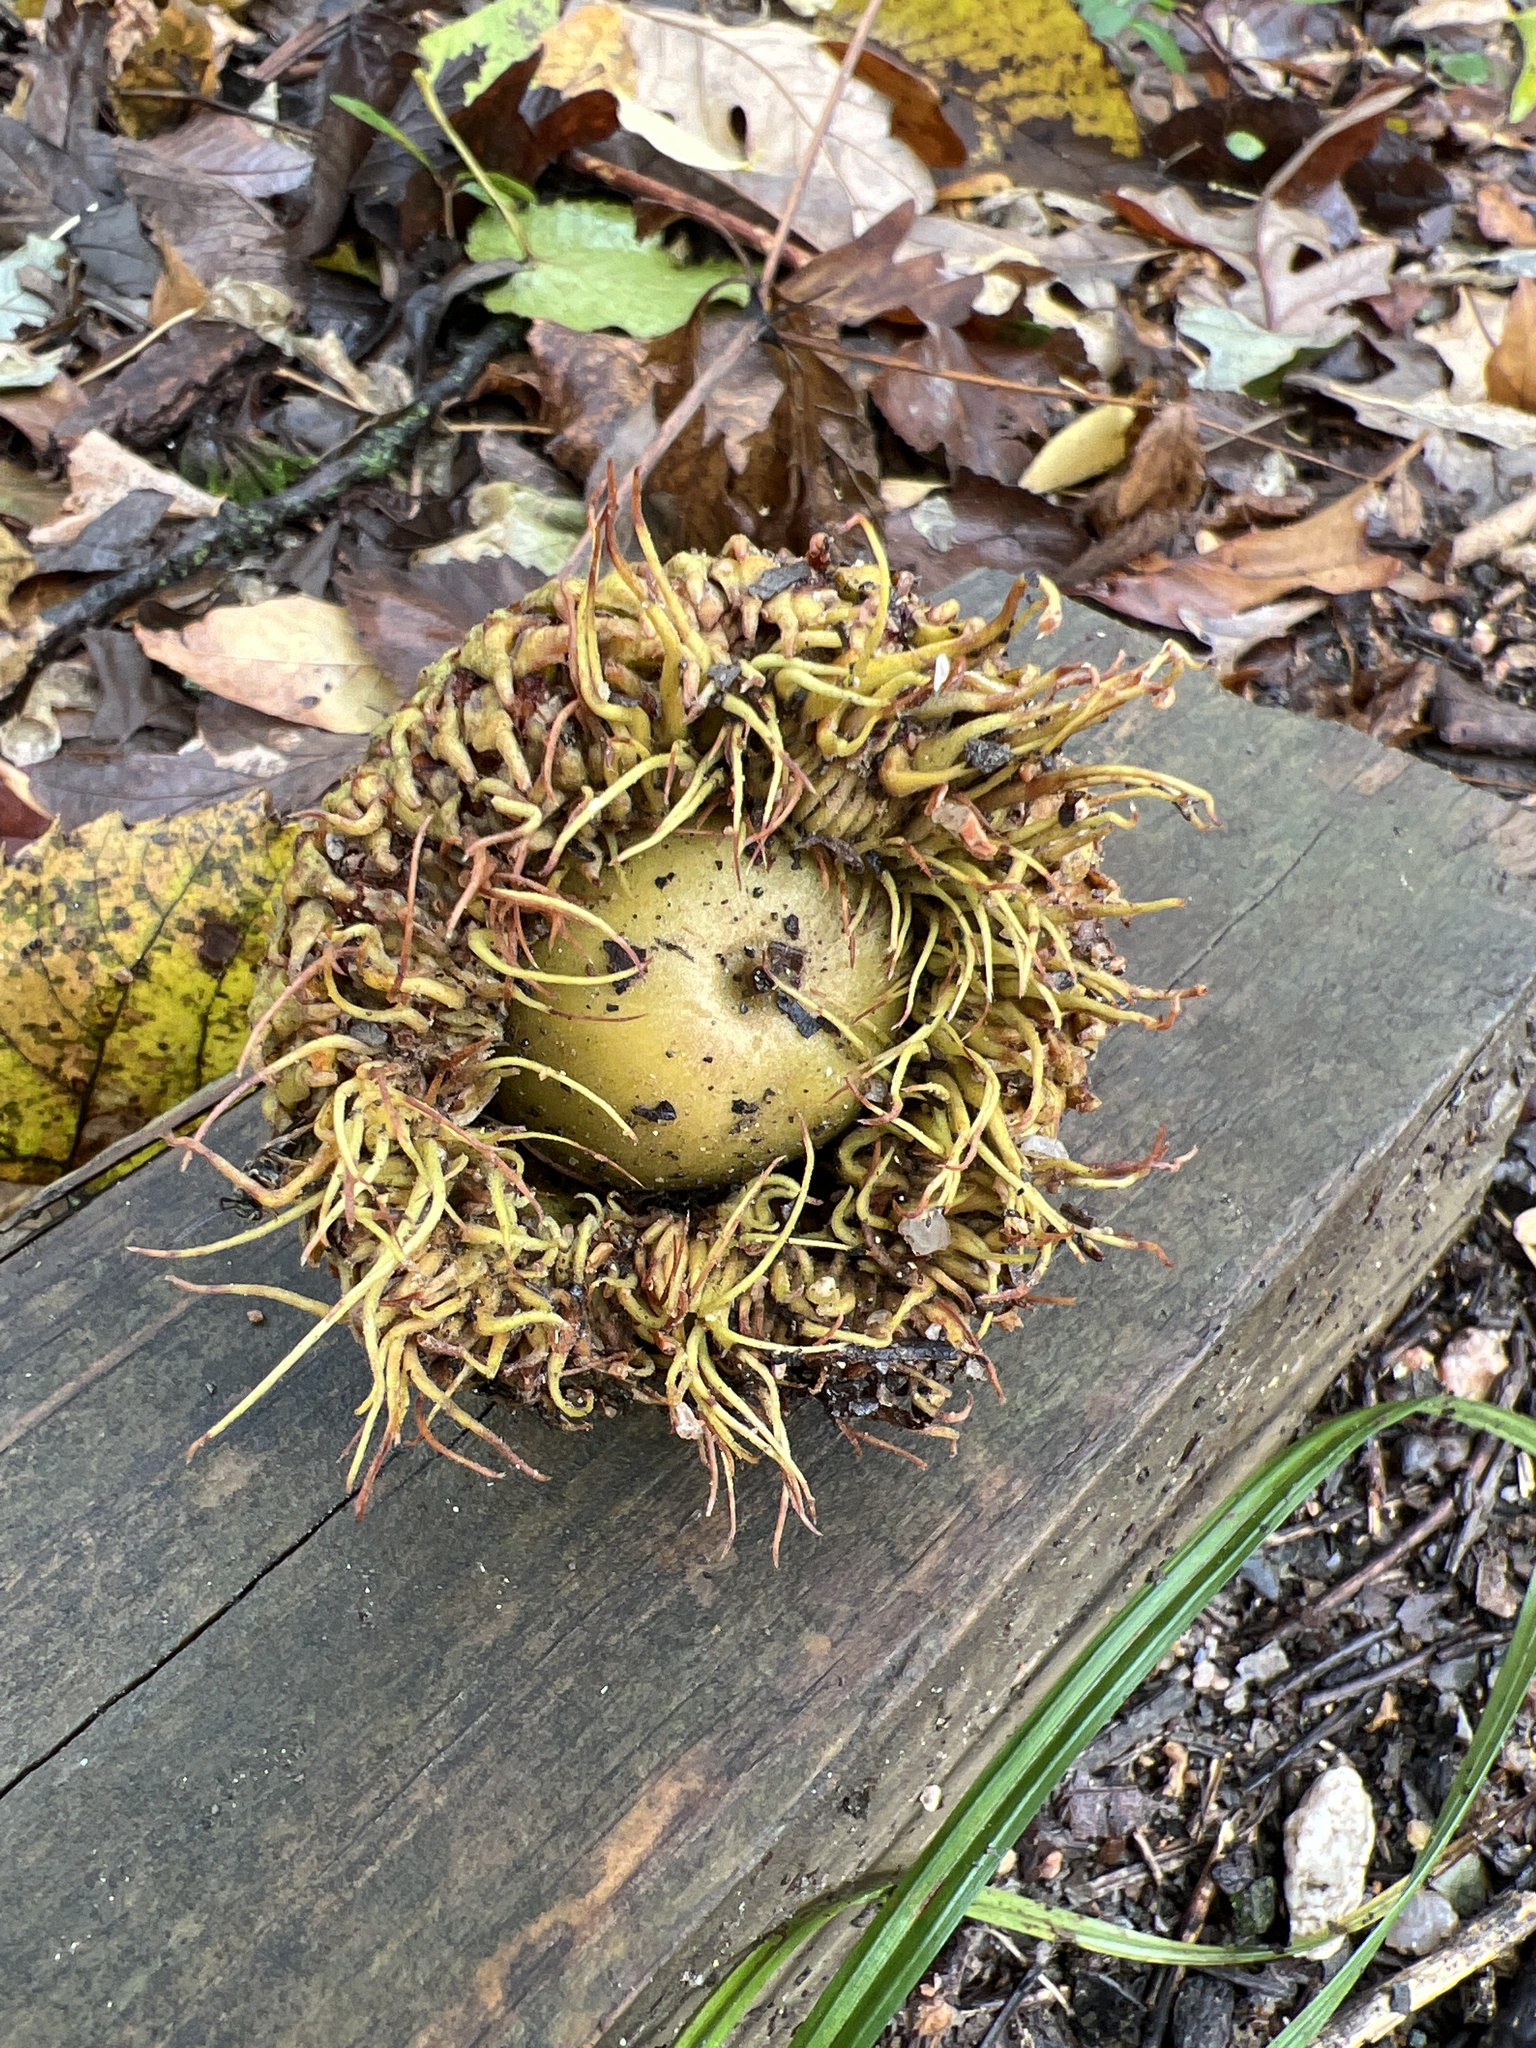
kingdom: Plantae
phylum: Tracheophyta
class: Magnoliopsida
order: Fagales
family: Fagaceae
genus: Quercus
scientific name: Quercus macrocarpa
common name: Bur oak
